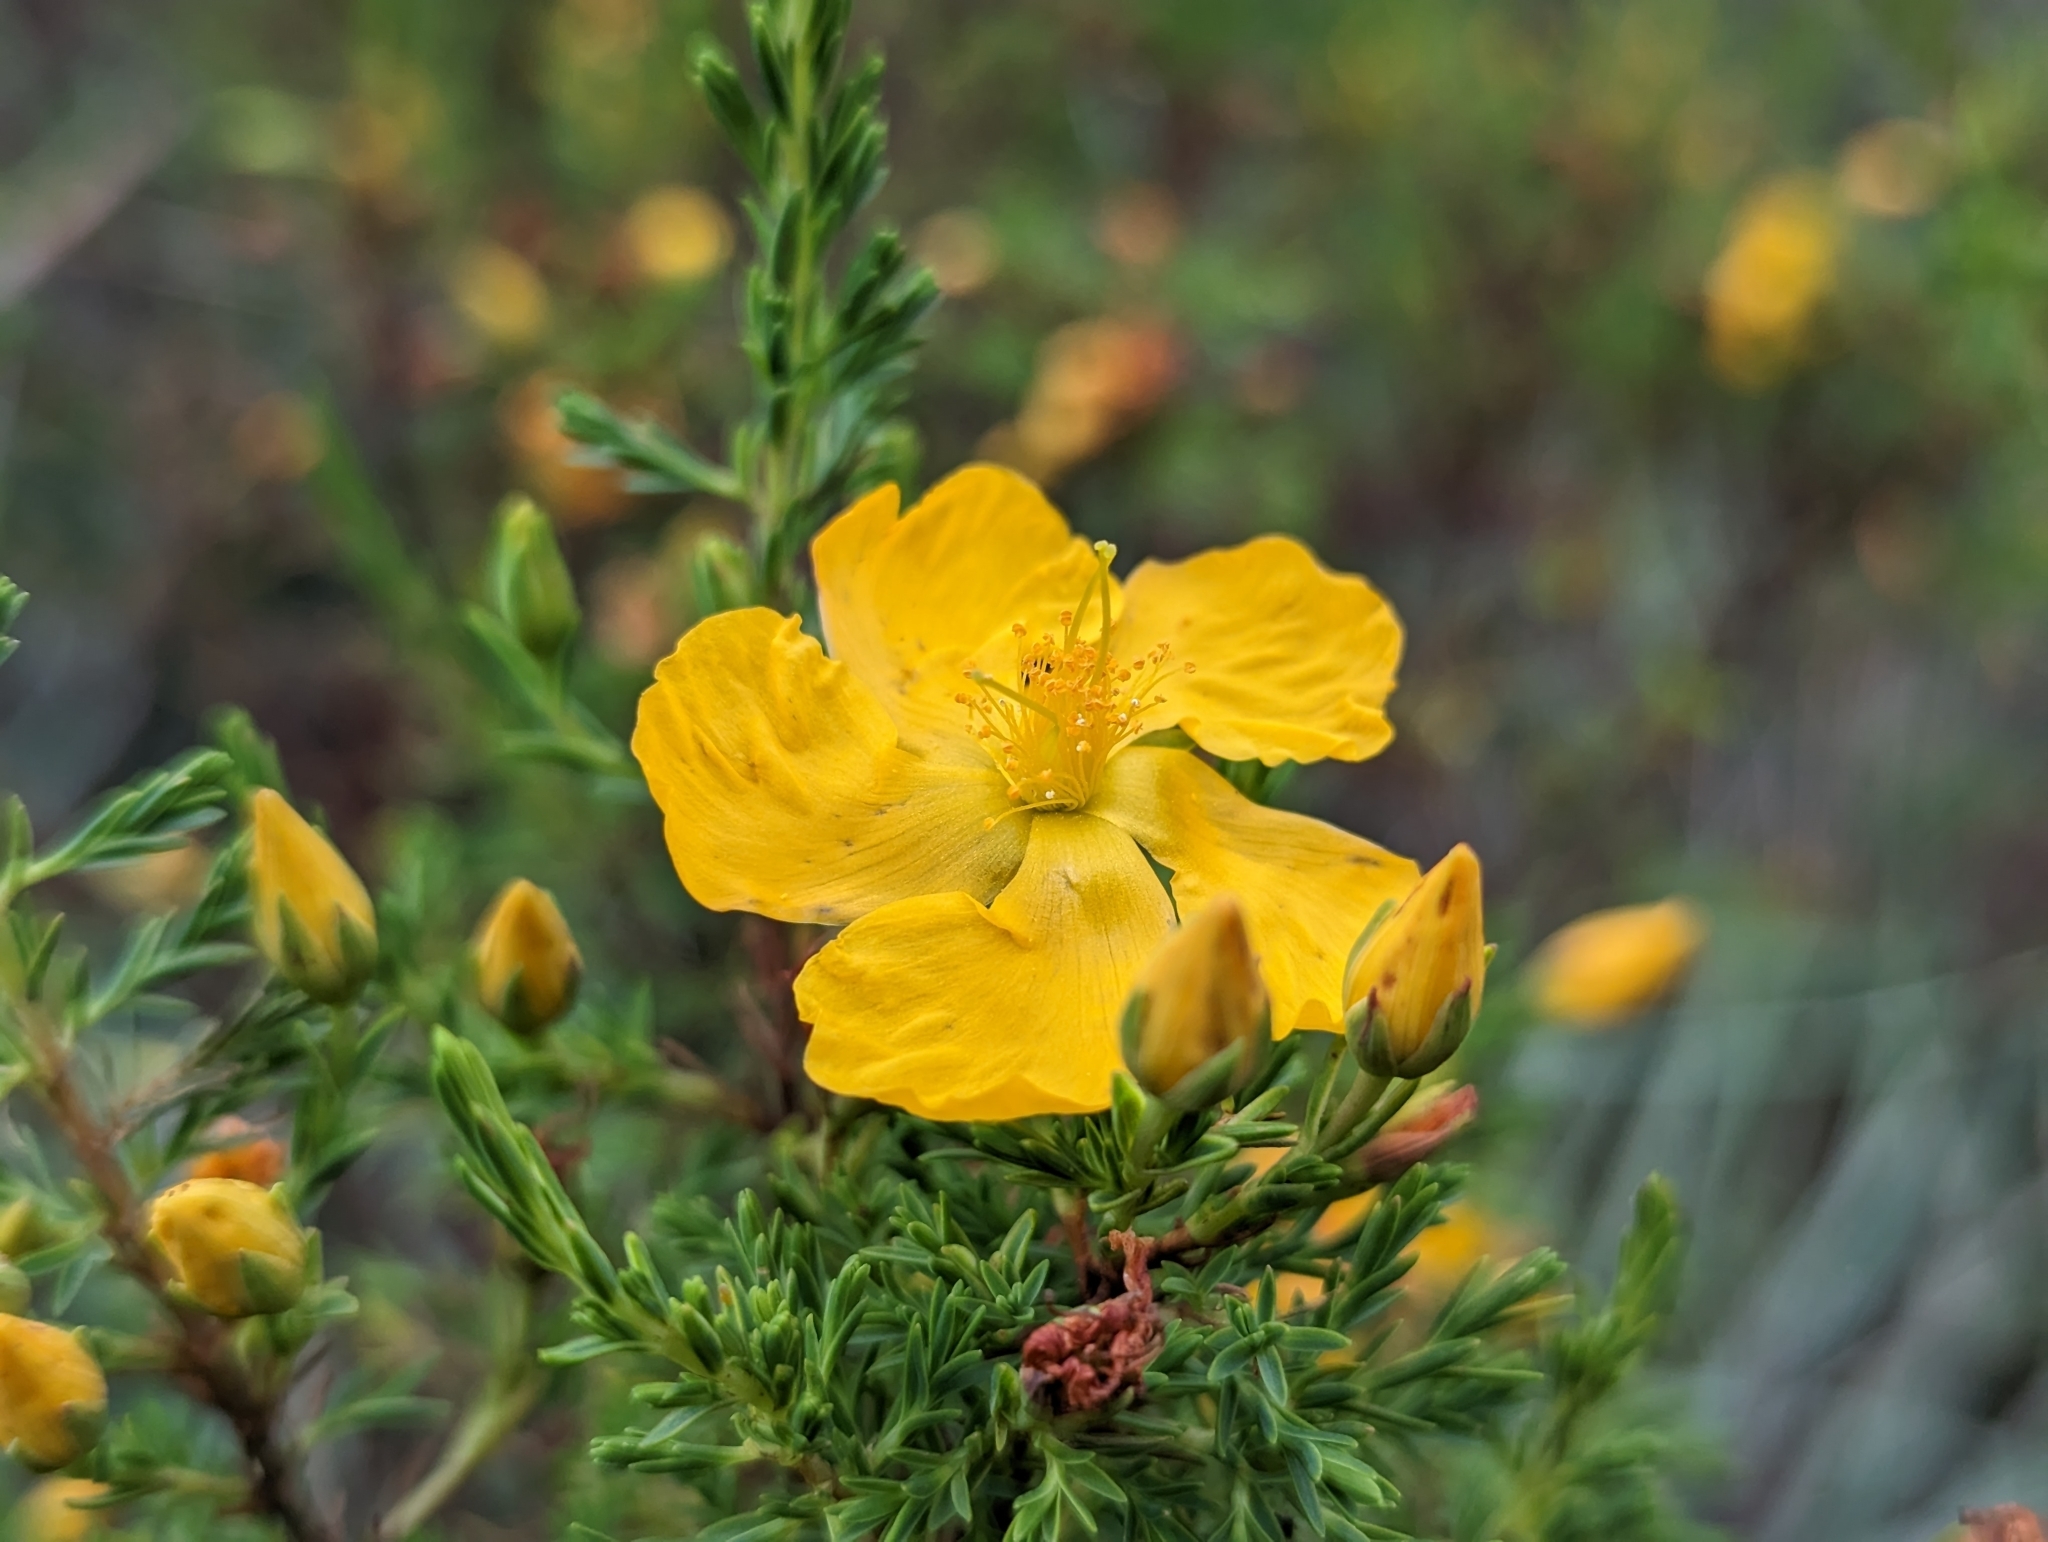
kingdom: Plantae
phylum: Tracheophyta
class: Magnoliopsida
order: Malpighiales
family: Hypericaceae
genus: Hypericum
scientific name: Hypericum laricifolium
